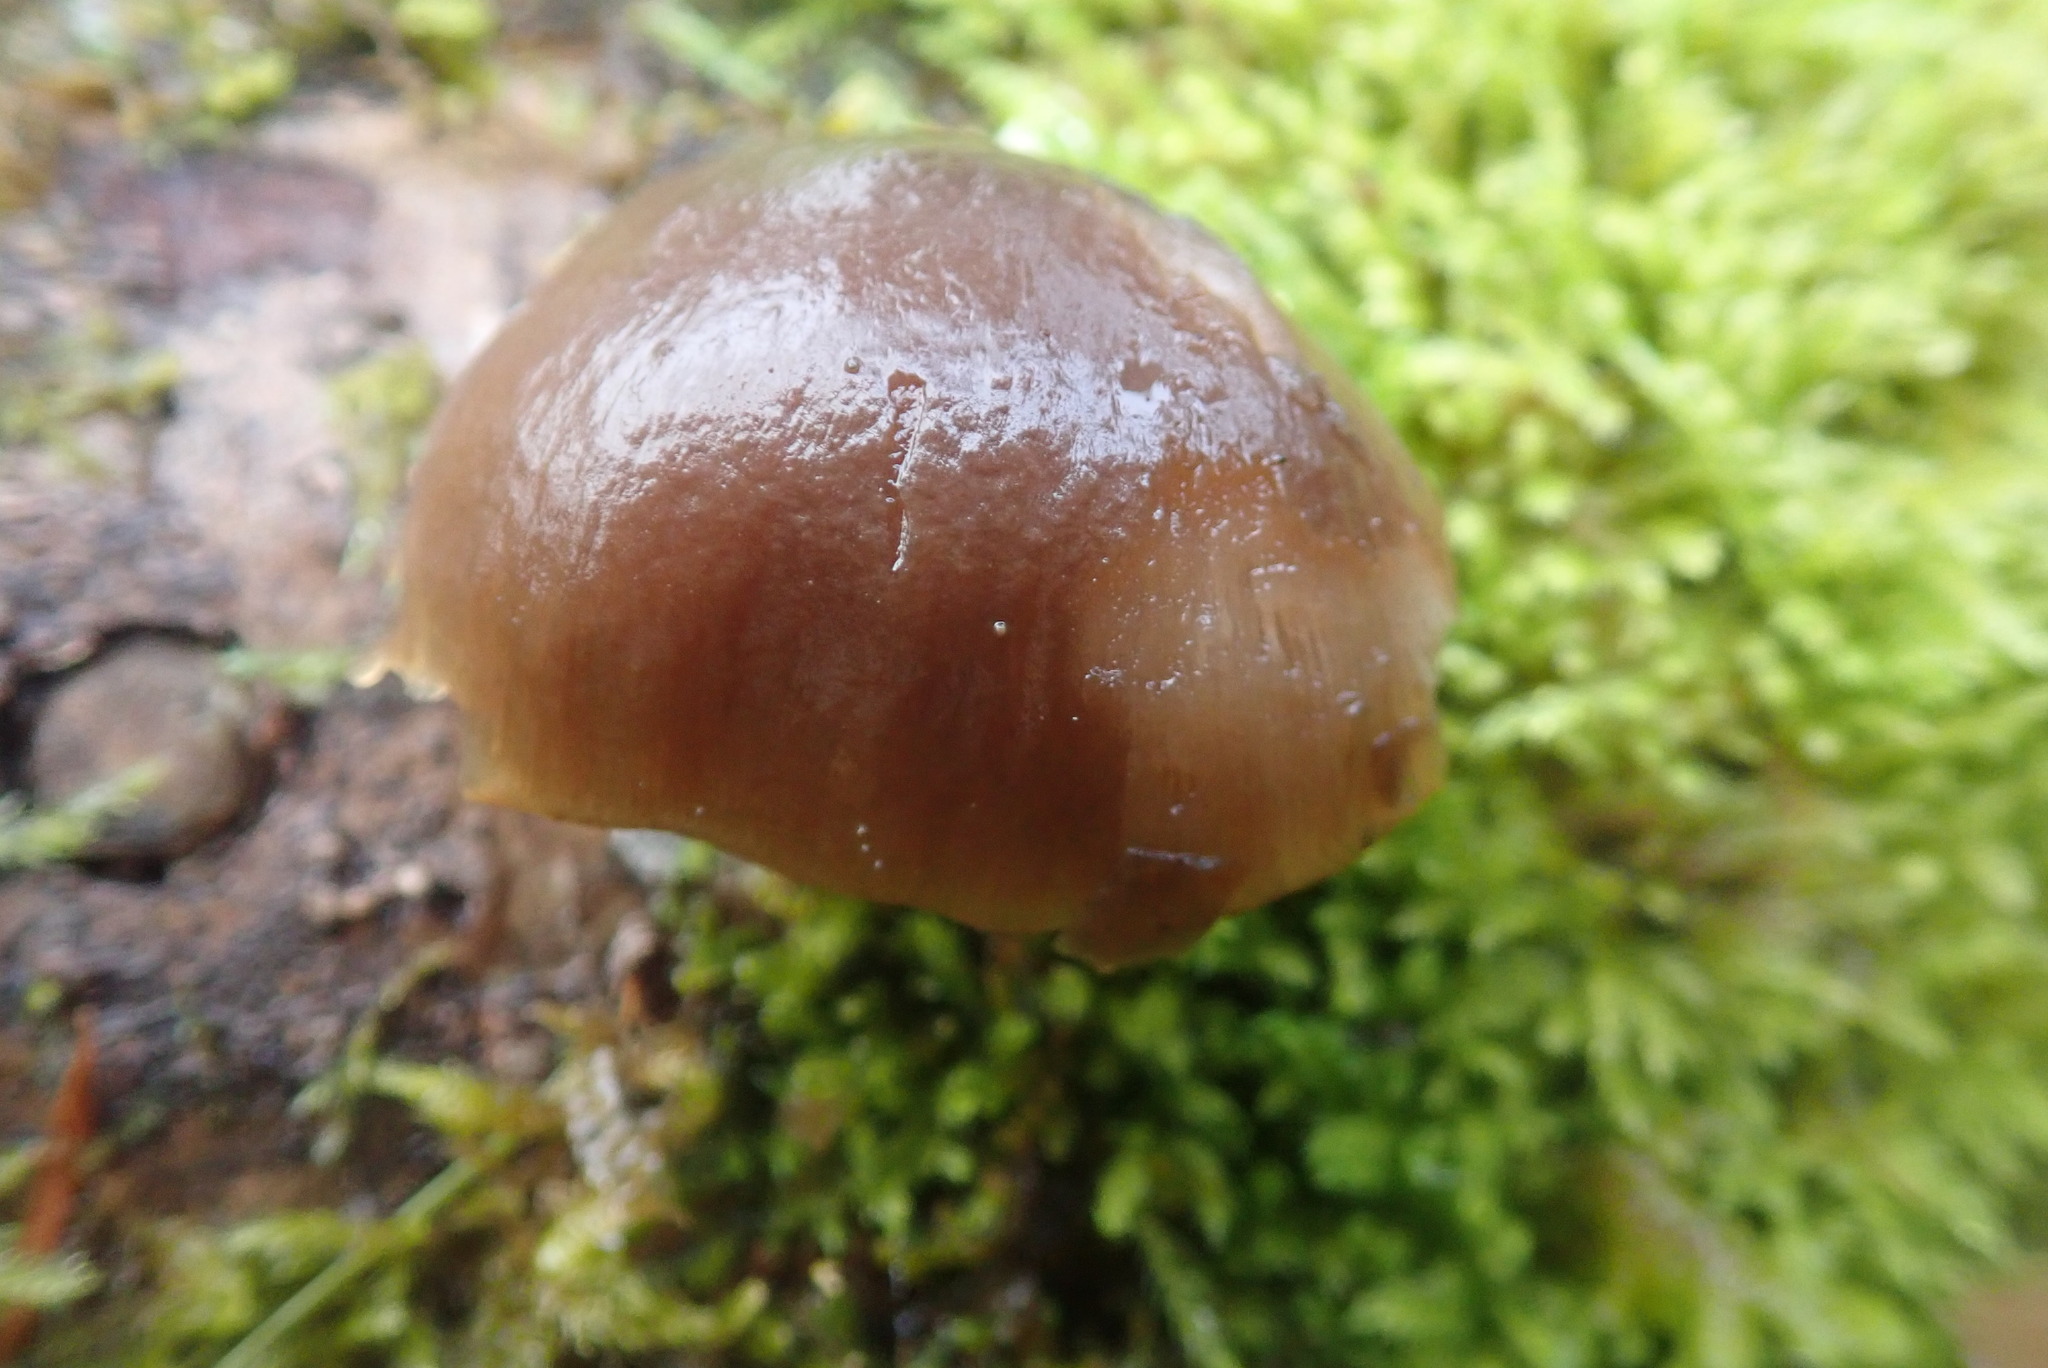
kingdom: Fungi
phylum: Basidiomycota
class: Agaricomycetes
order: Agaricales
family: Sarcomyxaceae
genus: Sarcomyxa
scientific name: Sarcomyxa serotina
